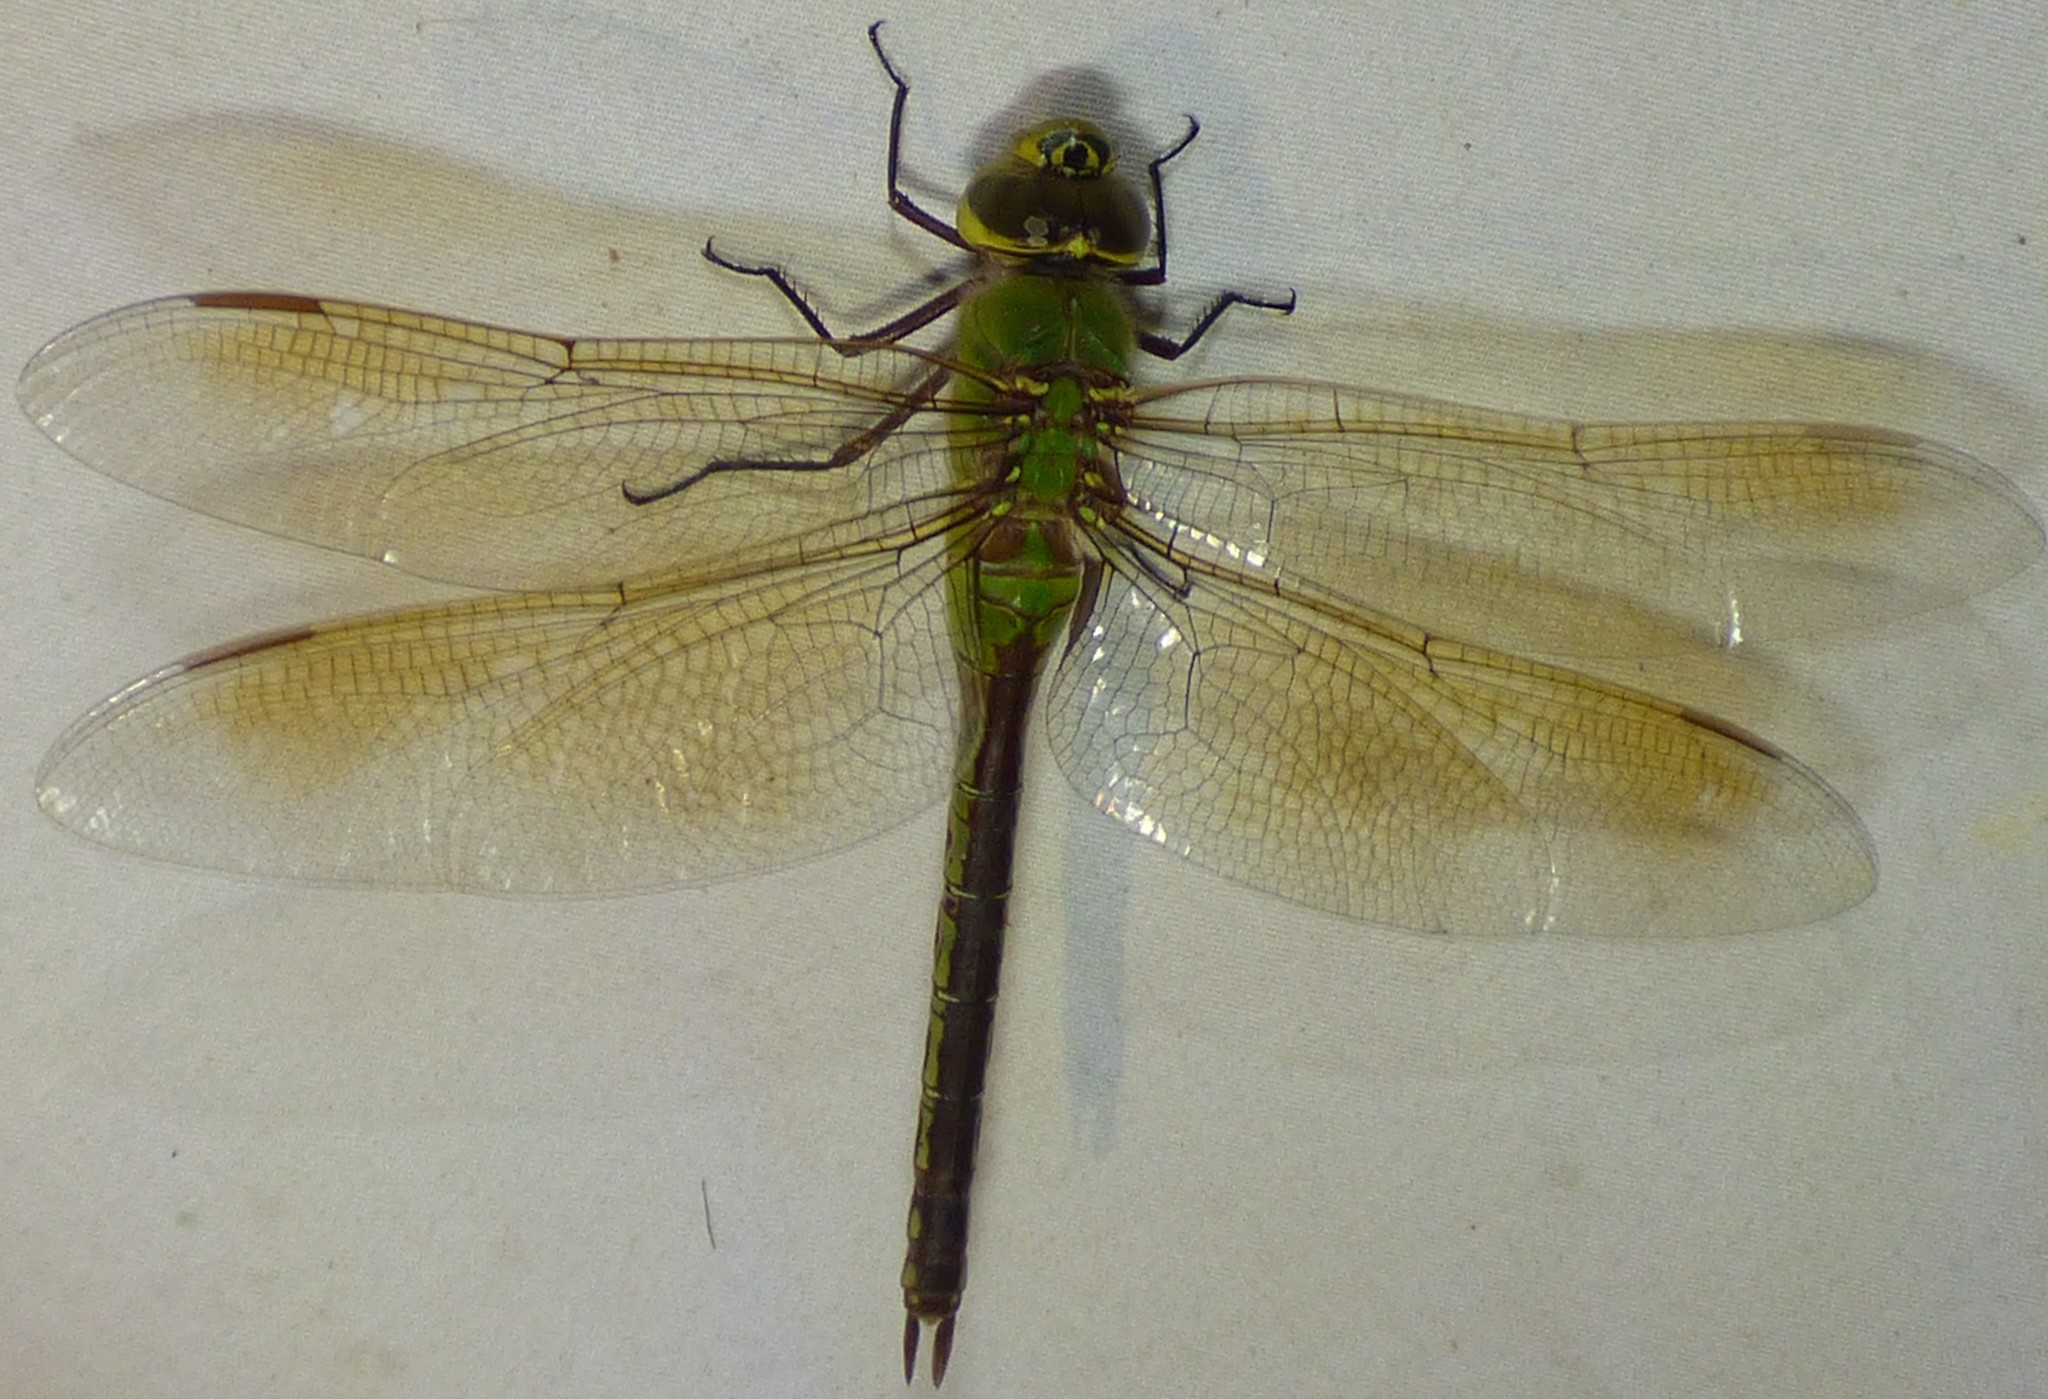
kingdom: Animalia
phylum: Arthropoda
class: Insecta
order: Odonata
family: Aeshnidae
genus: Anax
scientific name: Anax junius
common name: Common green darner
